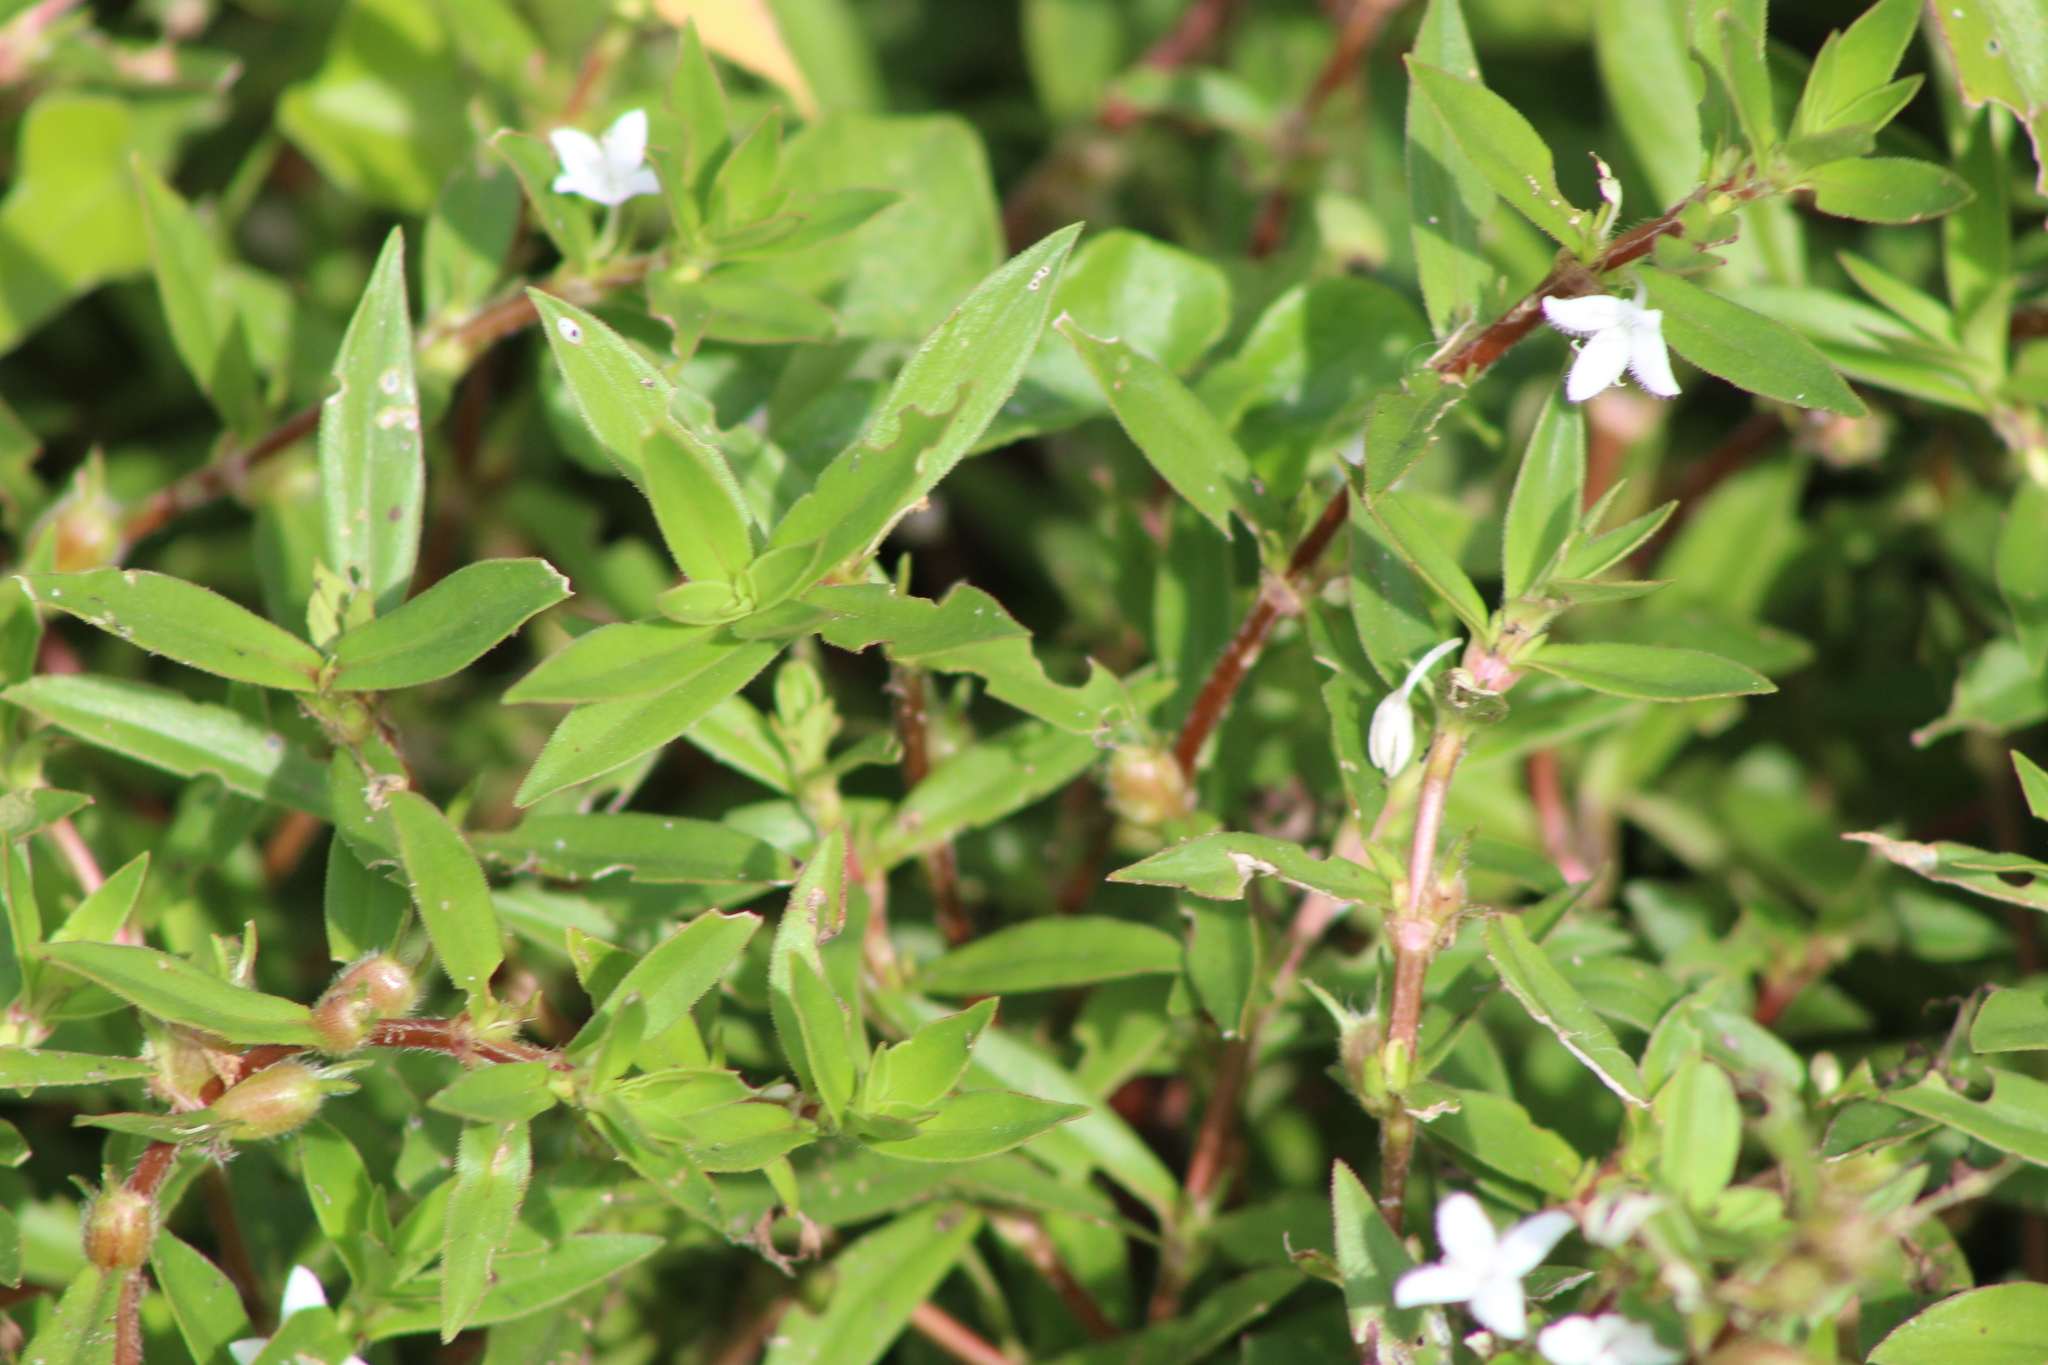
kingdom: Plantae
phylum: Tracheophyta
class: Magnoliopsida
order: Gentianales
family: Rubiaceae
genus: Diodia
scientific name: Diodia virginiana
